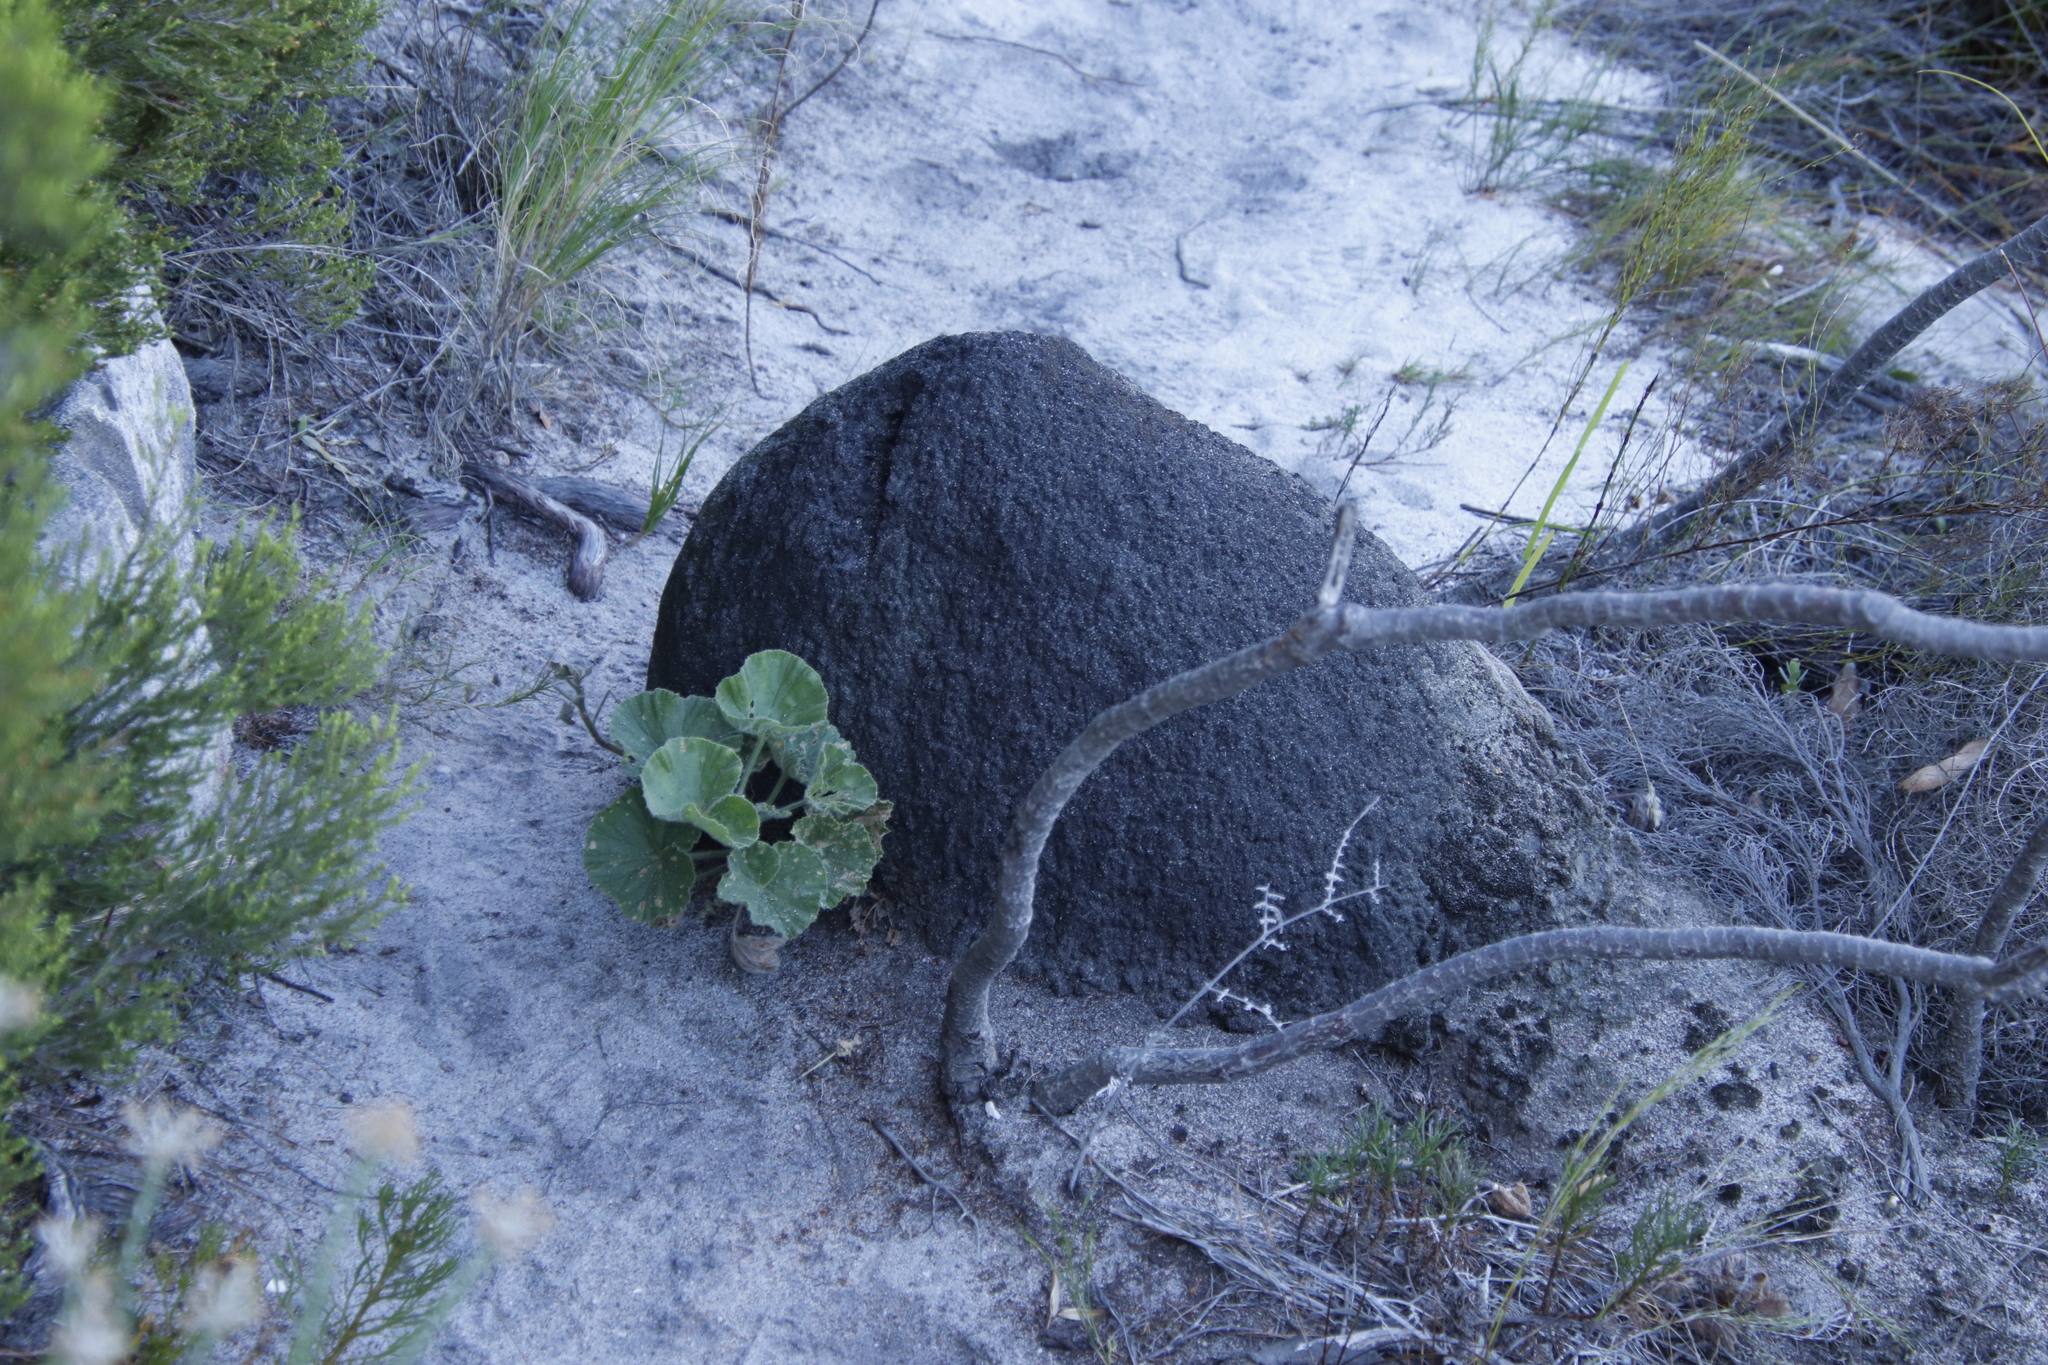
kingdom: Animalia
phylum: Arthropoda
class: Insecta
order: Blattodea
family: Termitidae
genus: Amitermes
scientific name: Amitermes hastatus
